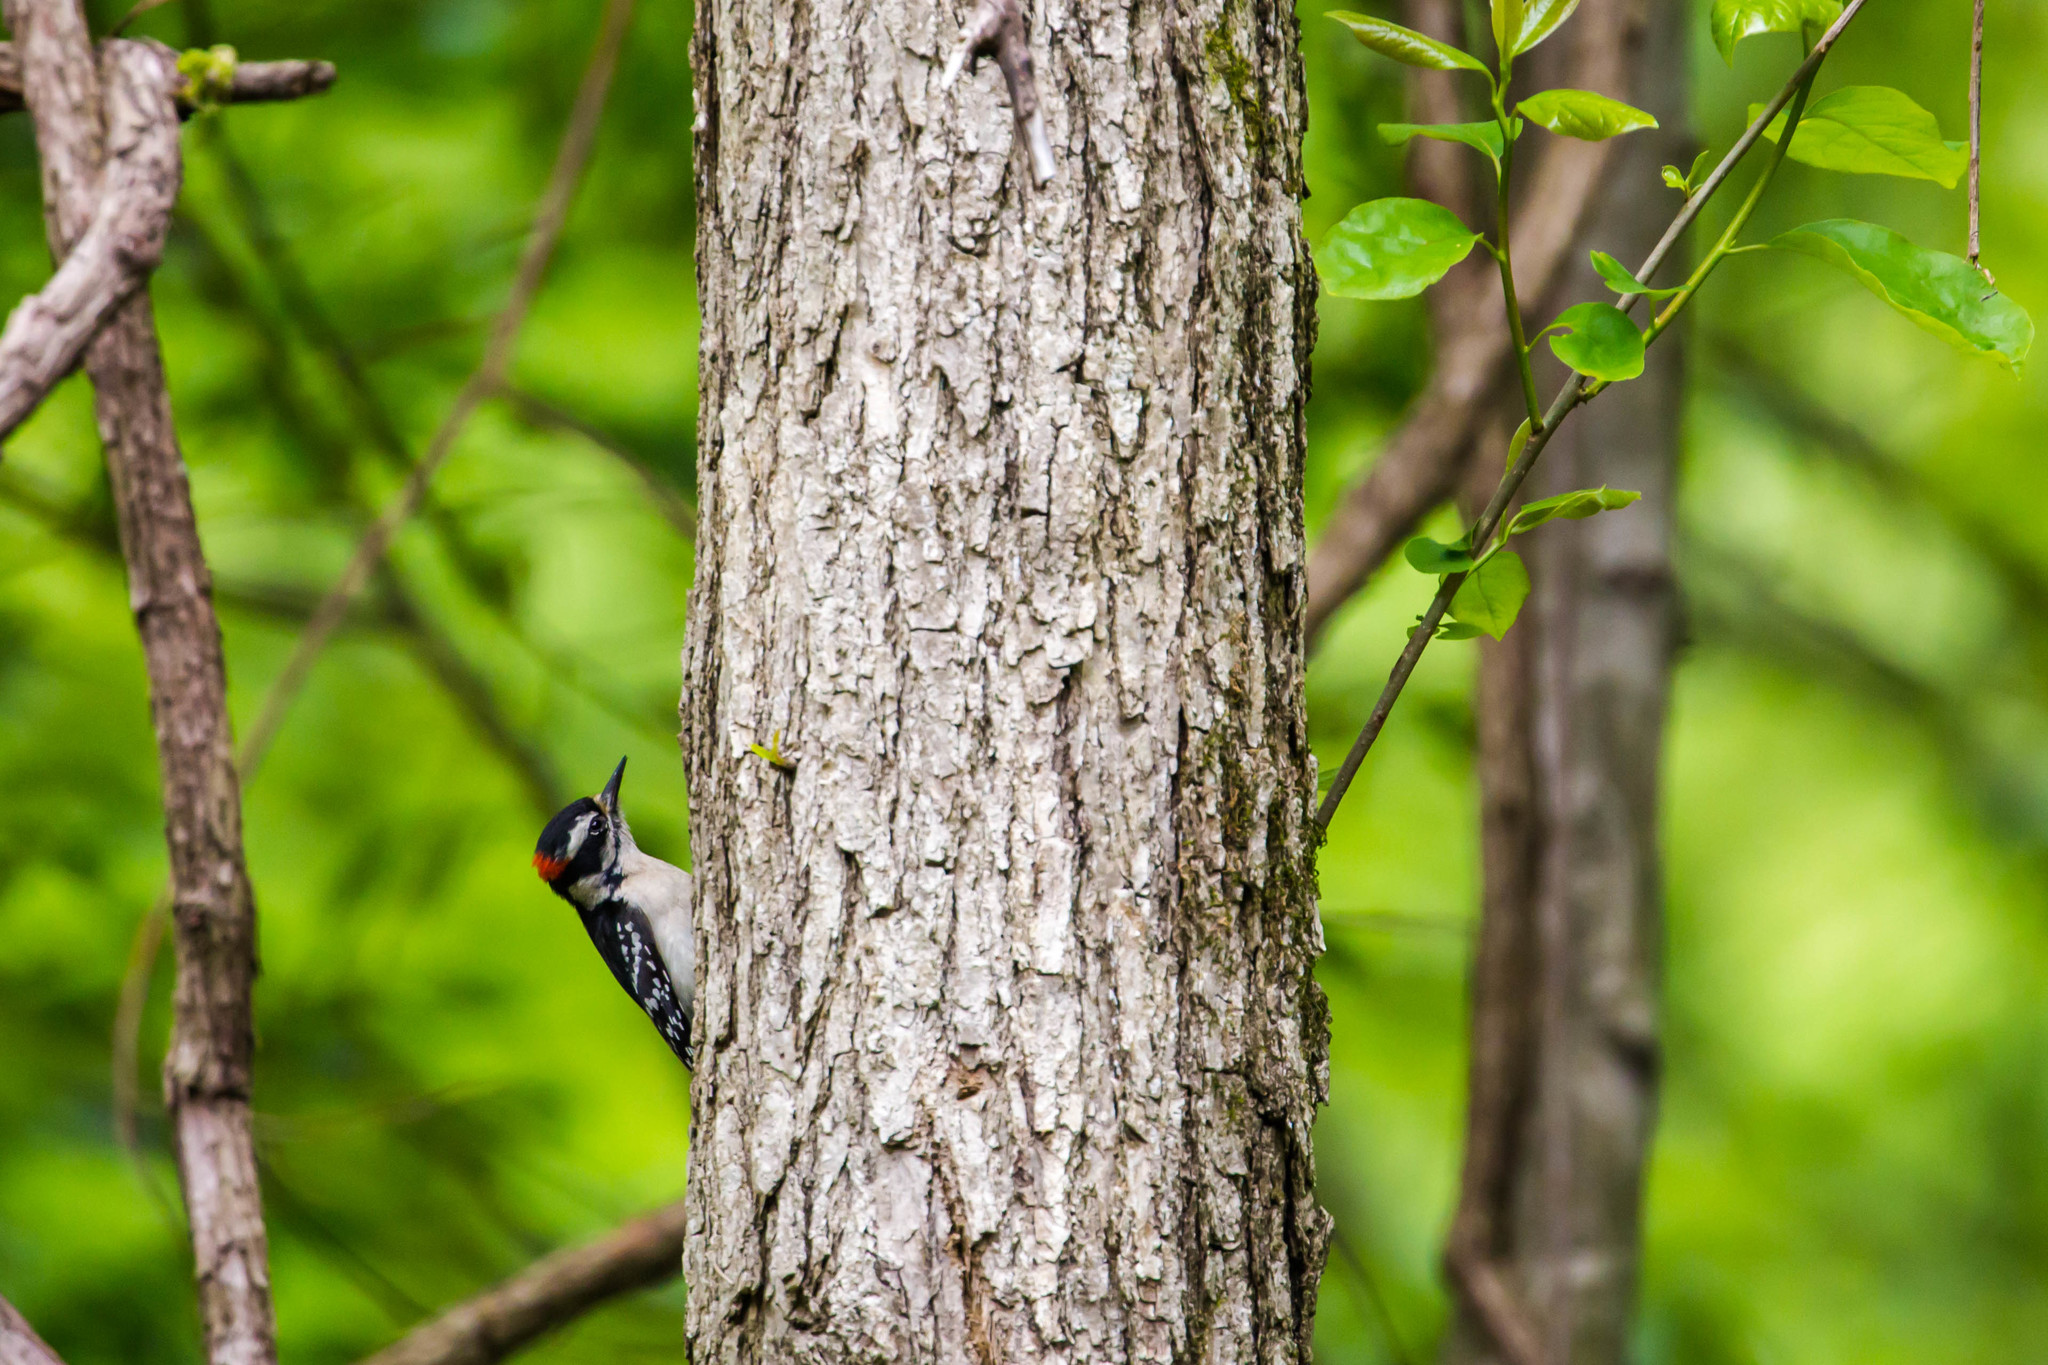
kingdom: Animalia
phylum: Chordata
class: Aves
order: Piciformes
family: Picidae
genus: Leuconotopicus
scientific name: Leuconotopicus villosus
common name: Hairy woodpecker
